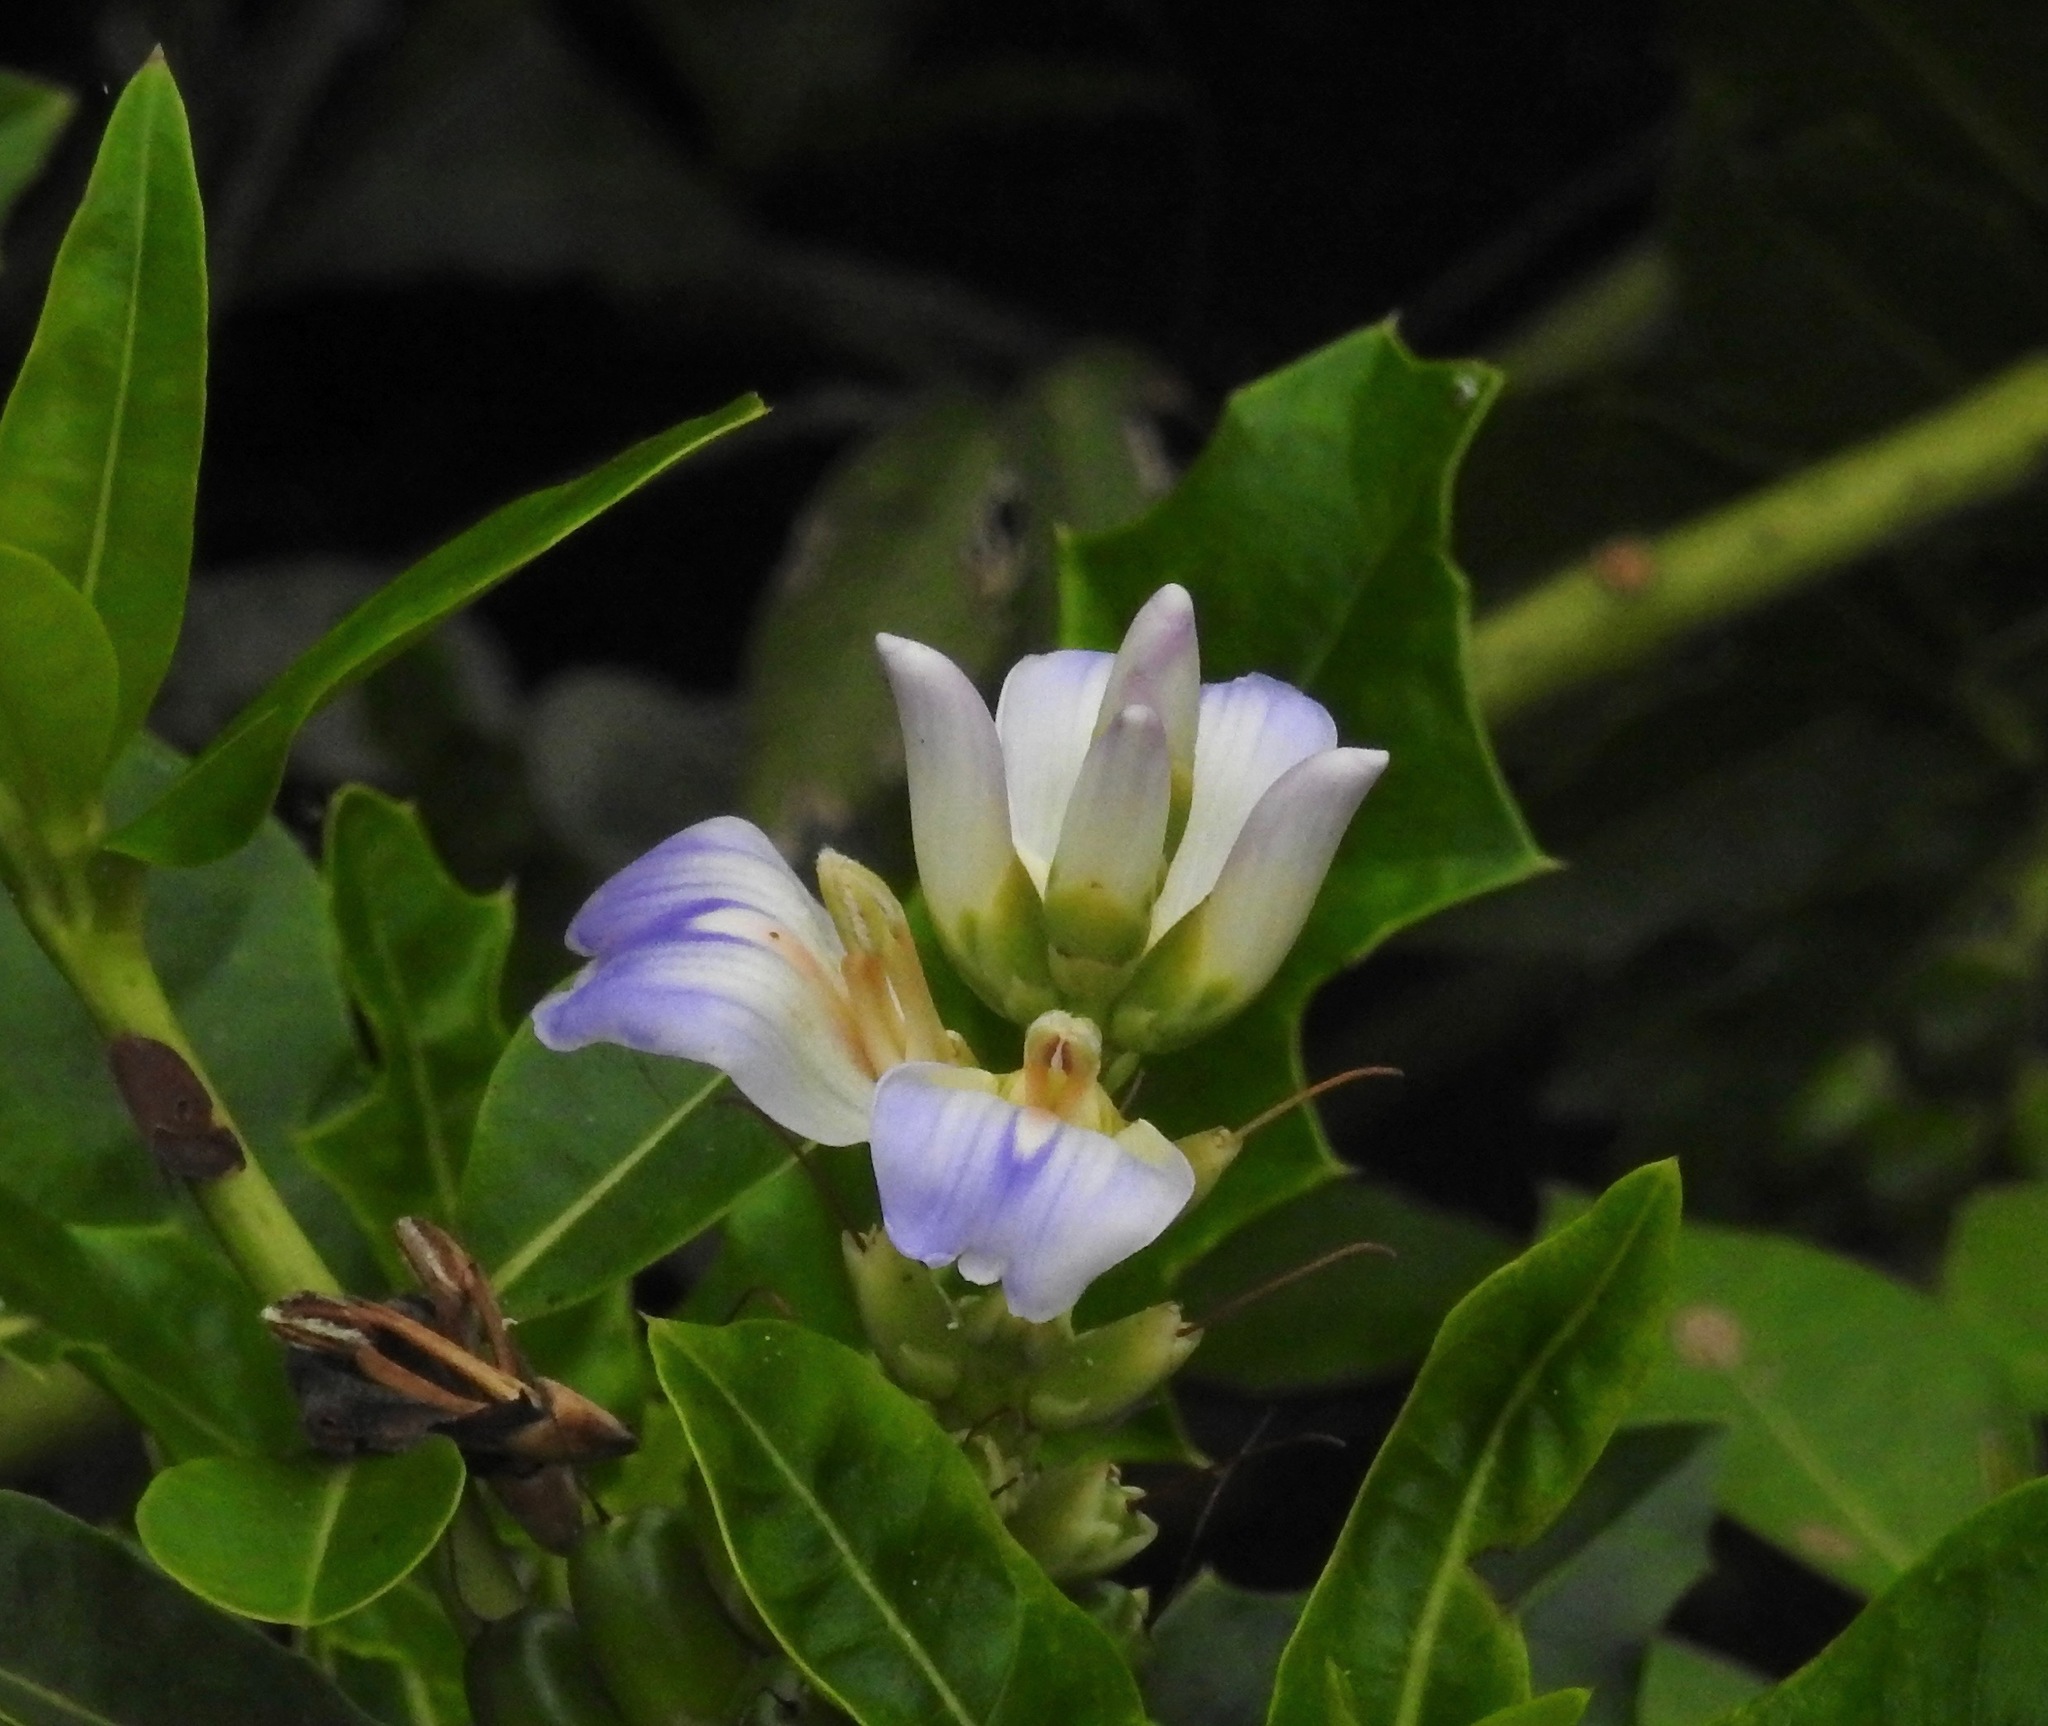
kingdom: Plantae
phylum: Tracheophyta
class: Magnoliopsida
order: Lamiales
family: Acanthaceae
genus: Acanthus
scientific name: Acanthus ilicifolius
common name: Holy mangrove
